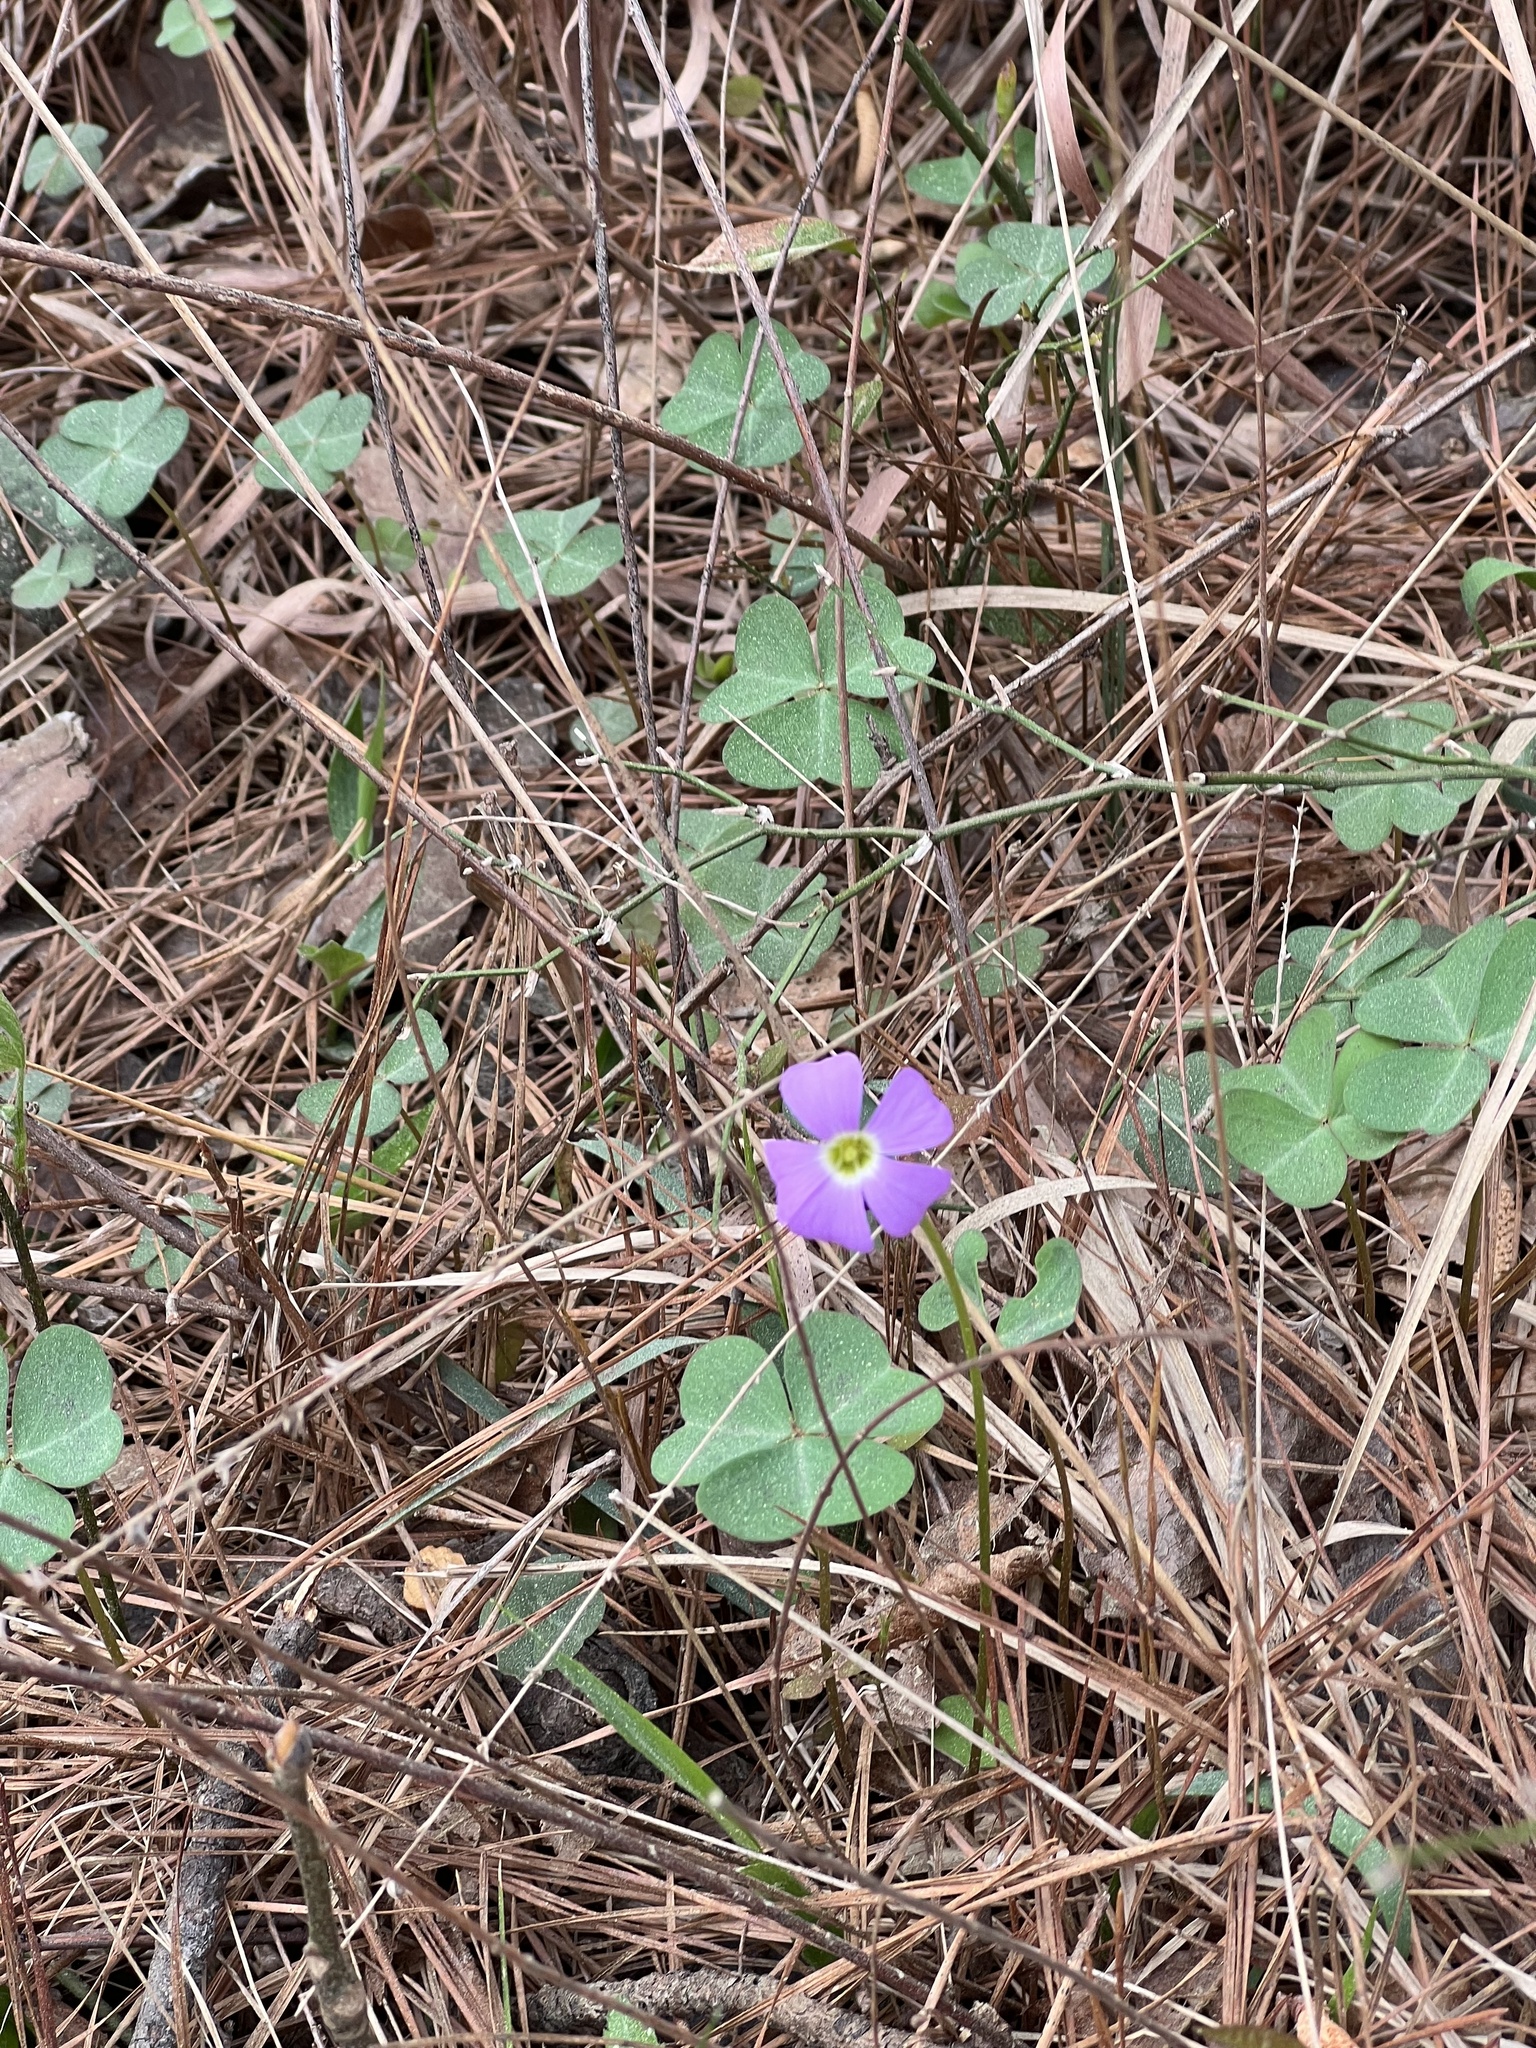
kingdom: Plantae
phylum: Tracheophyta
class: Magnoliopsida
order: Oxalidales
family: Oxalidaceae
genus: Oxalis
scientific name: Oxalis violacea
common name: Violet wood-sorrel
